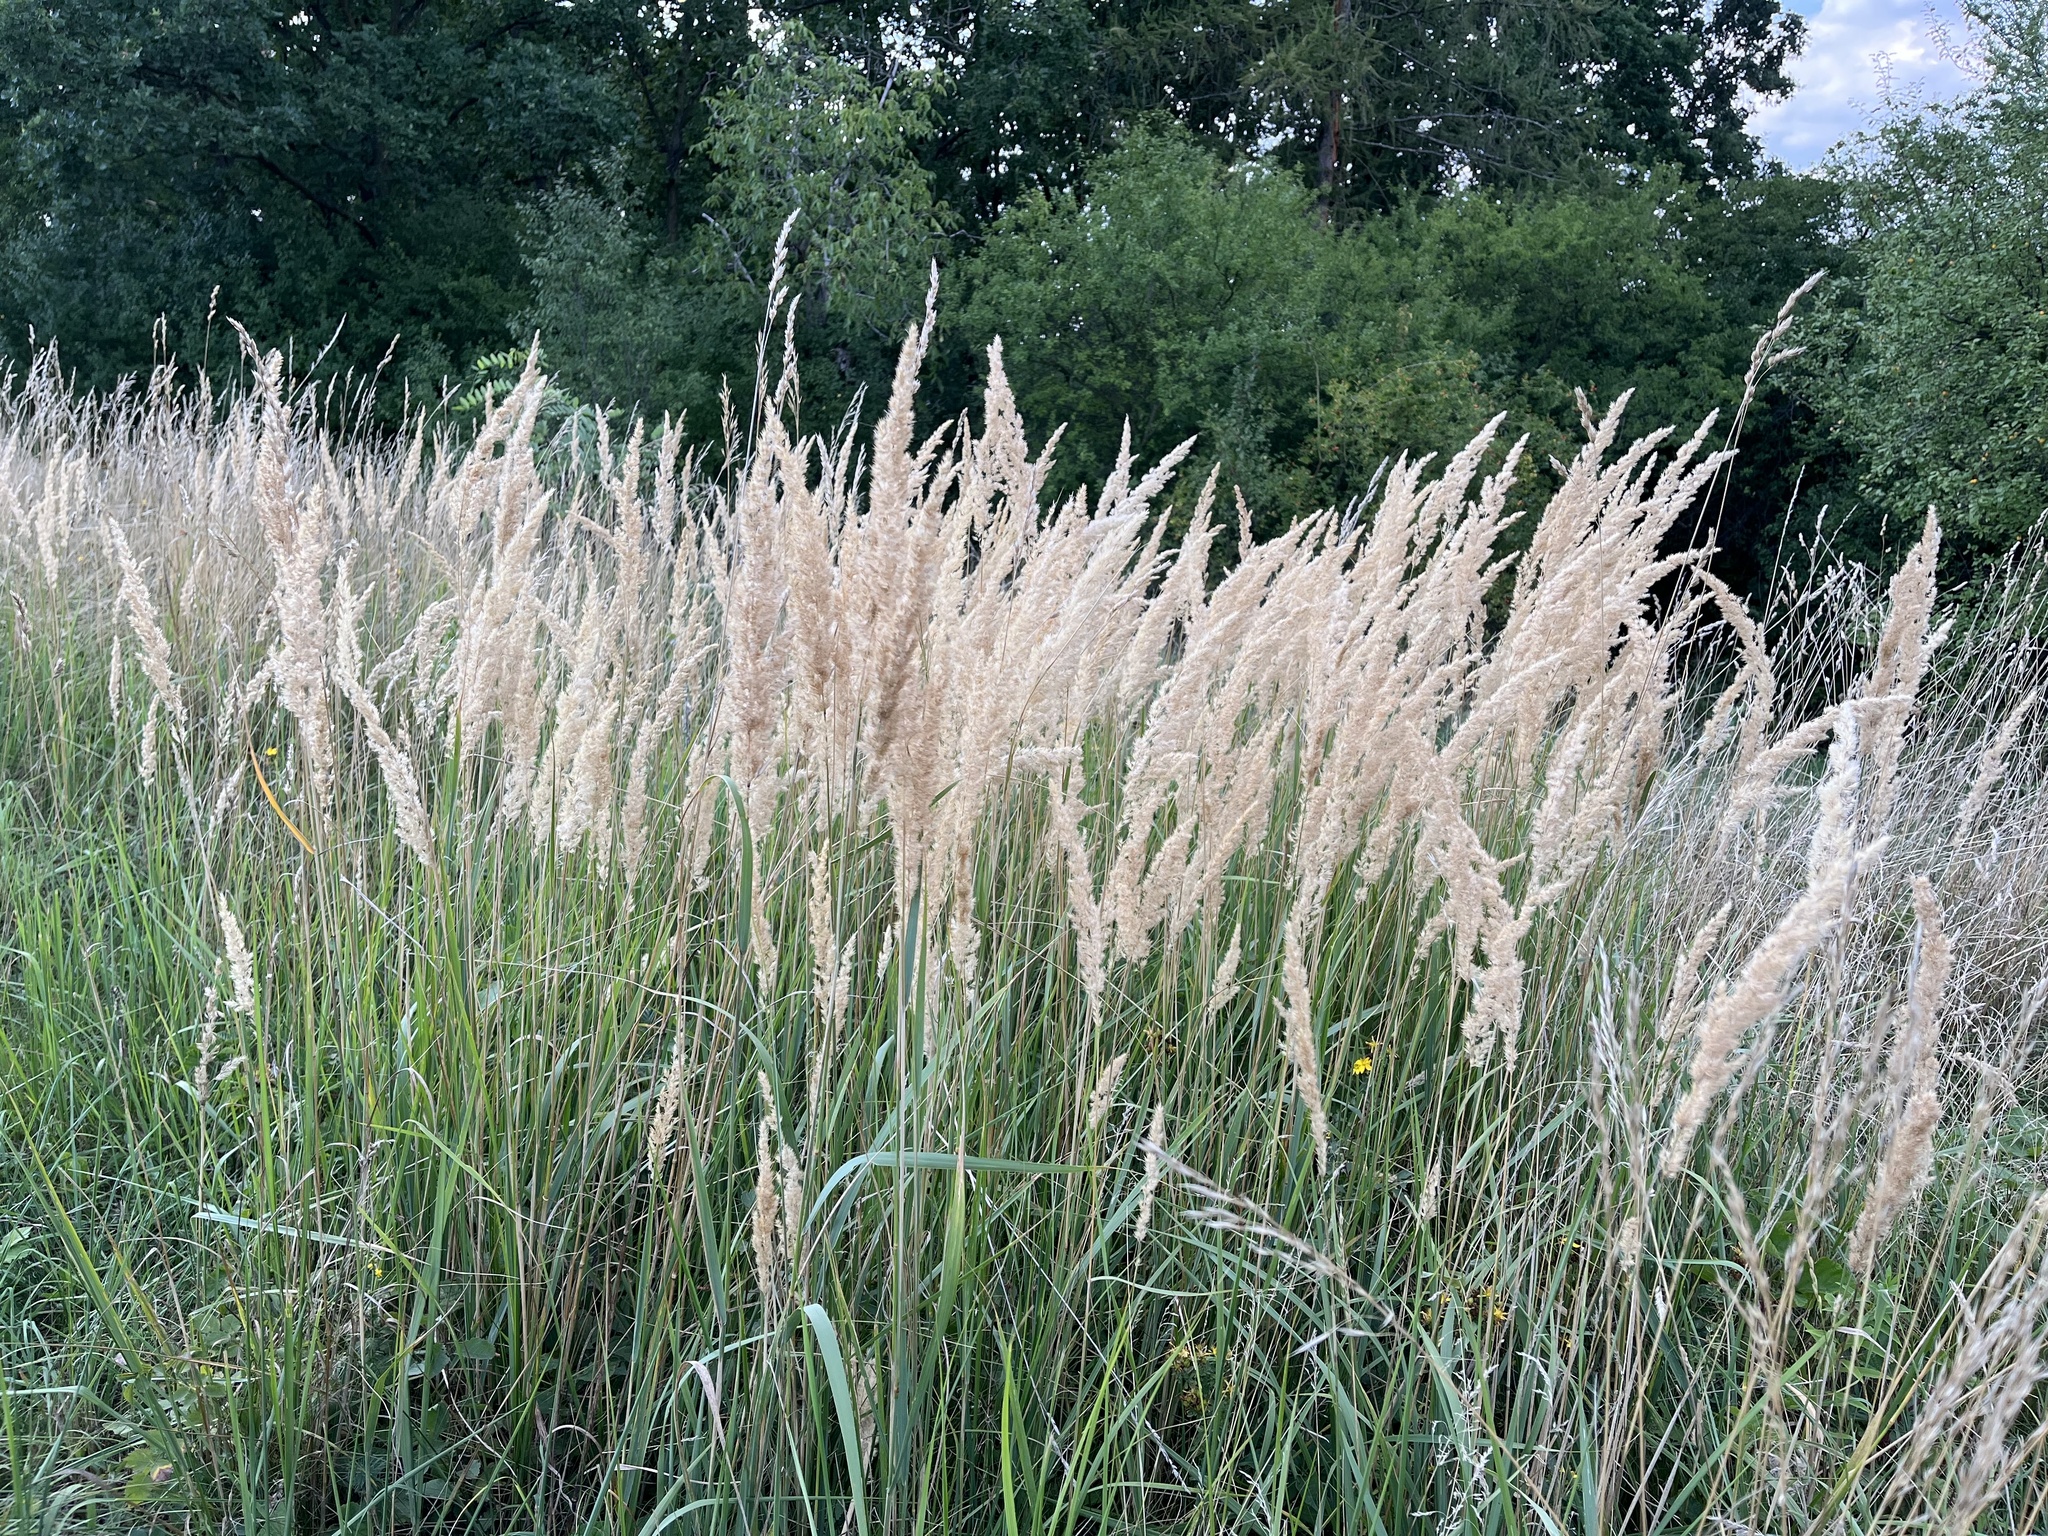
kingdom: Plantae
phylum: Tracheophyta
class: Liliopsida
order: Poales
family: Poaceae
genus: Calamagrostis
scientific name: Calamagrostis epigejos
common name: Wood small-reed
